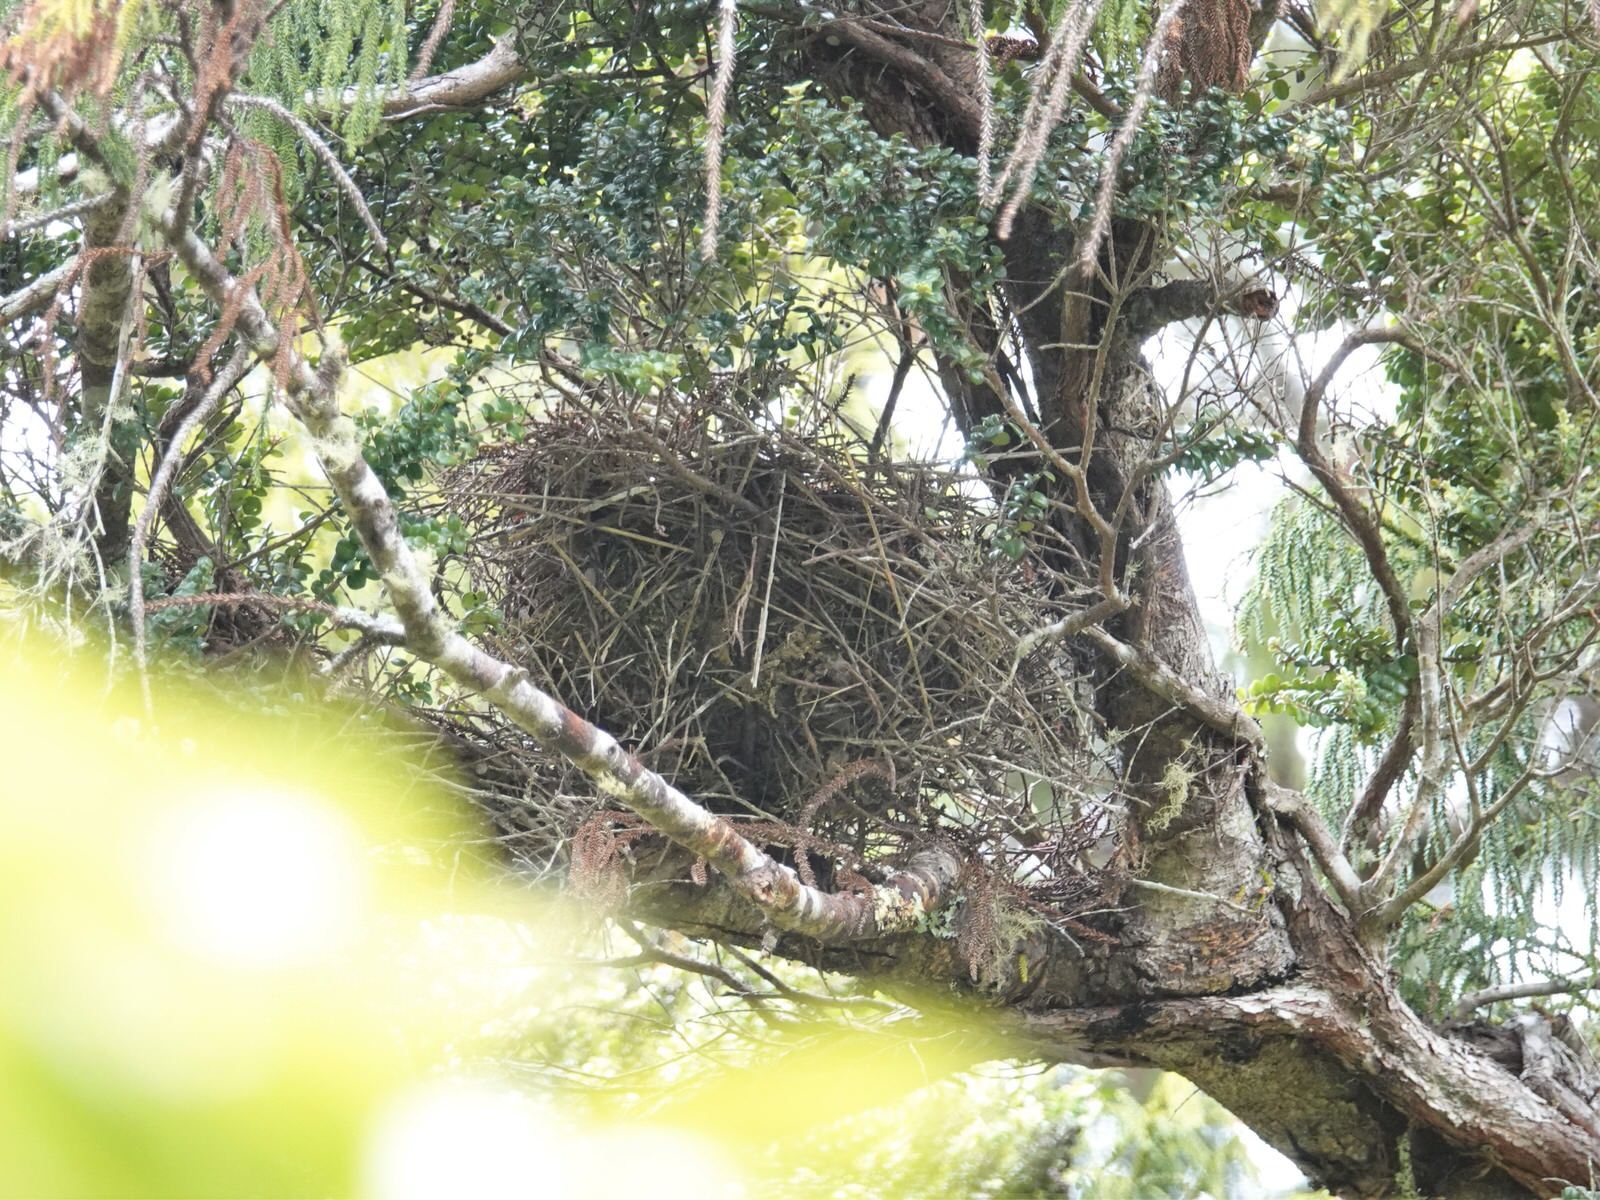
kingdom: Animalia
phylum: Chordata
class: Aves
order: Passeriformes
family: Meliphagidae
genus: Prosthemadera
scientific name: Prosthemadera novaeseelandiae
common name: Tui
